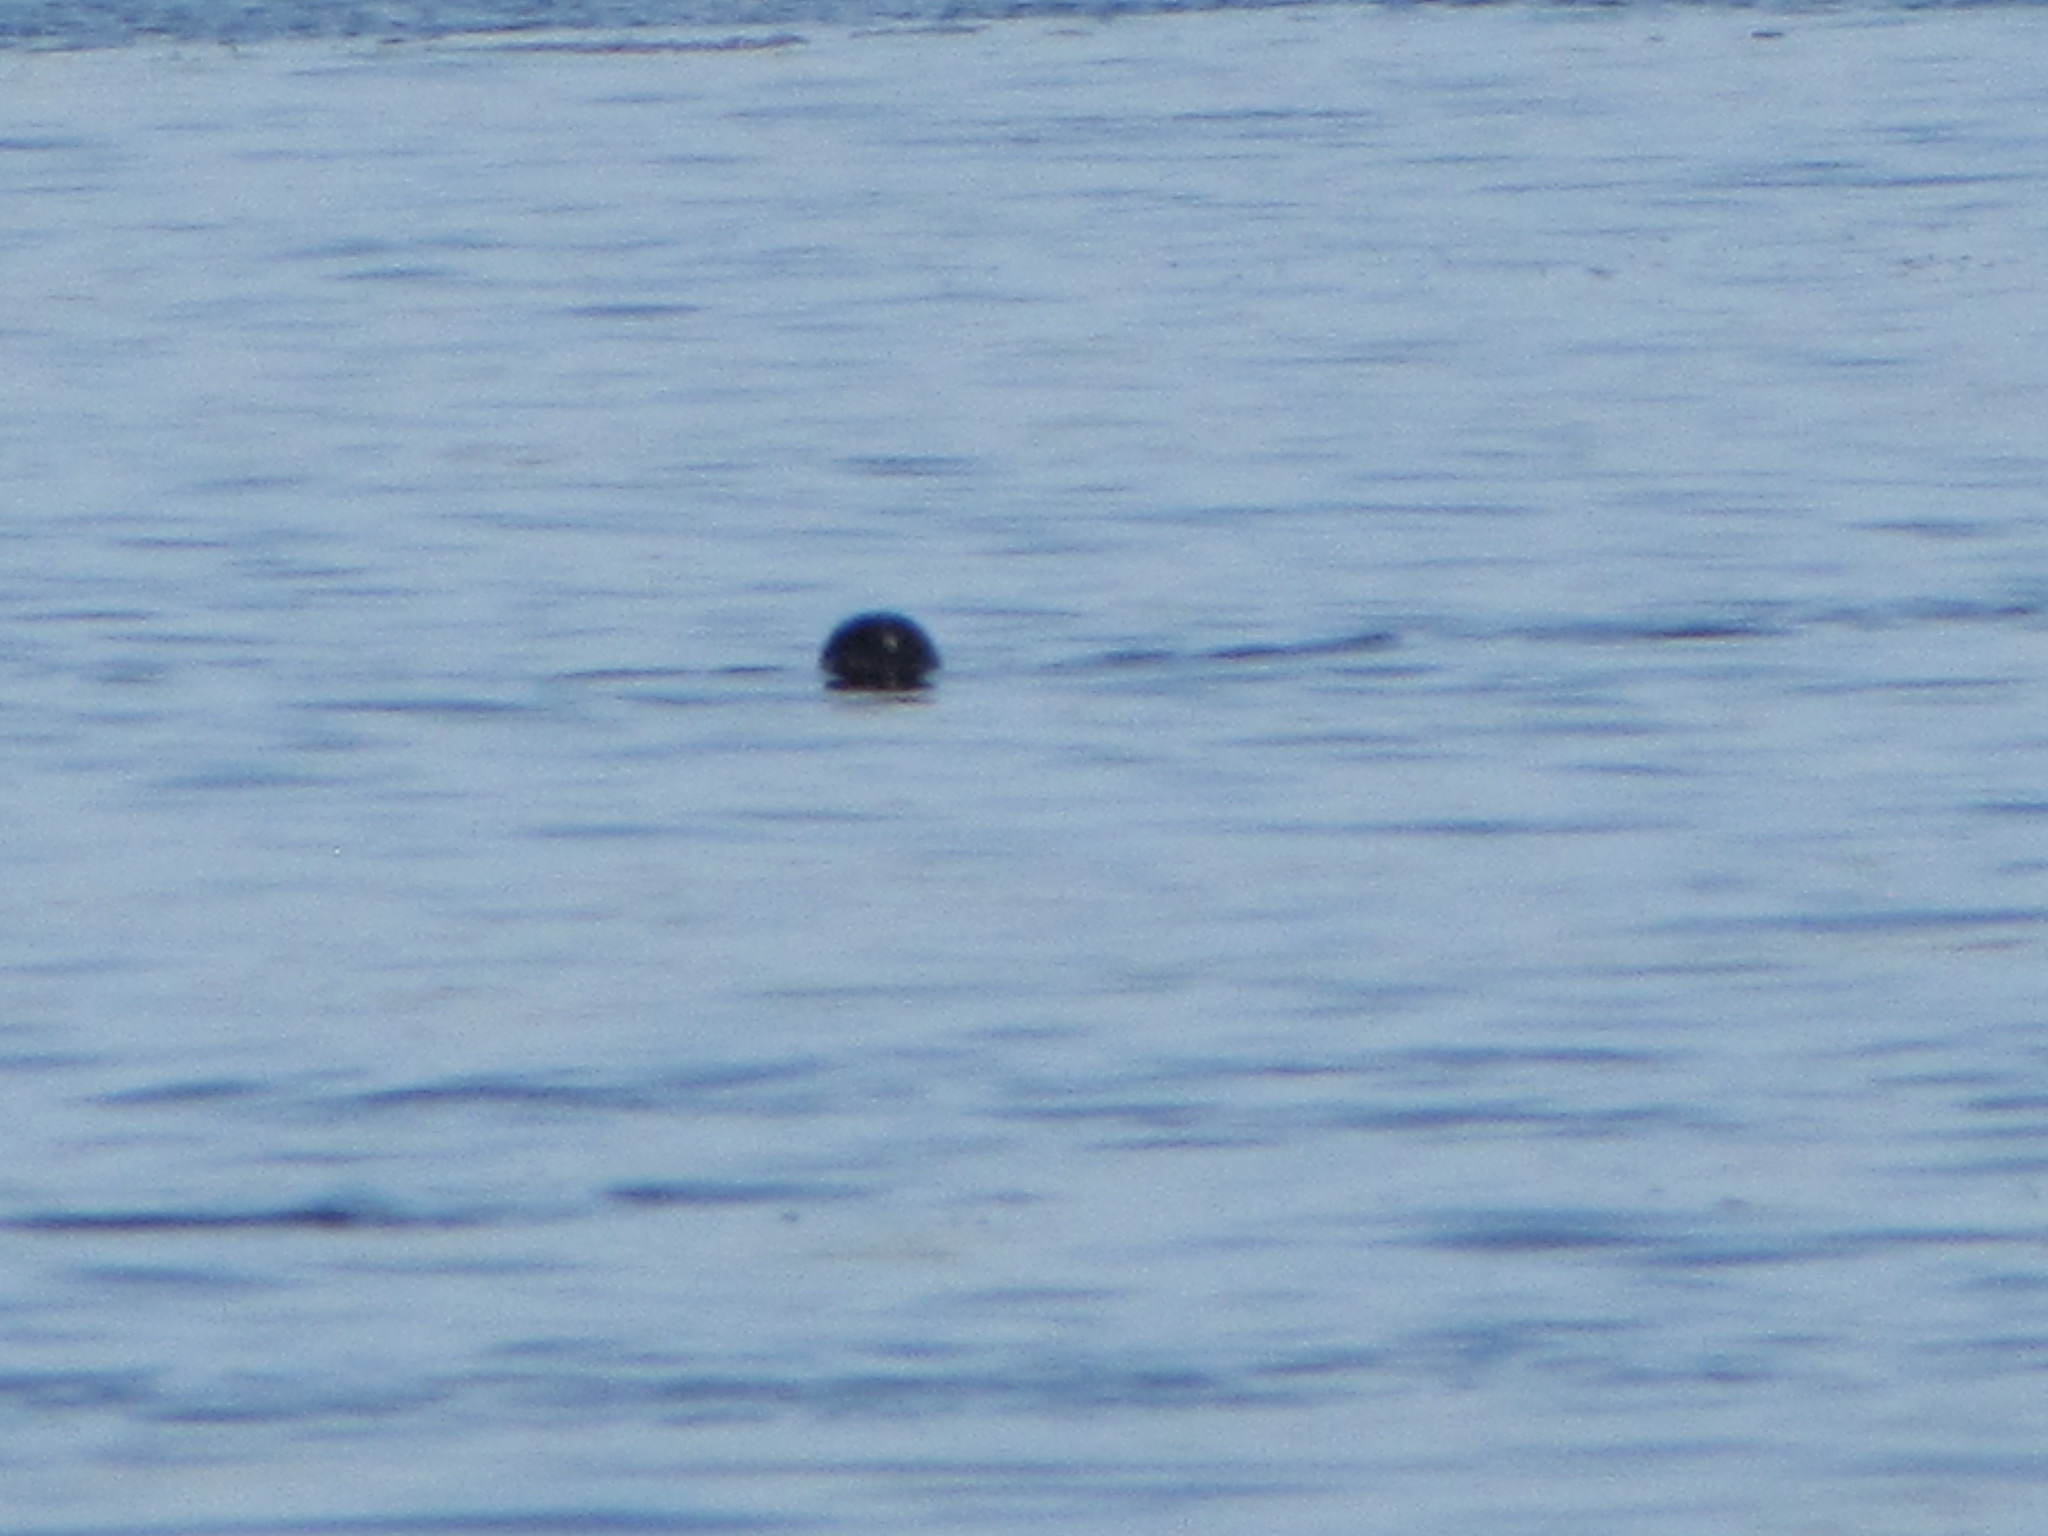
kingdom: Animalia
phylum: Chordata
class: Mammalia
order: Carnivora
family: Phocidae
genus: Phoca
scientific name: Phoca vitulina
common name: Harbor seal
